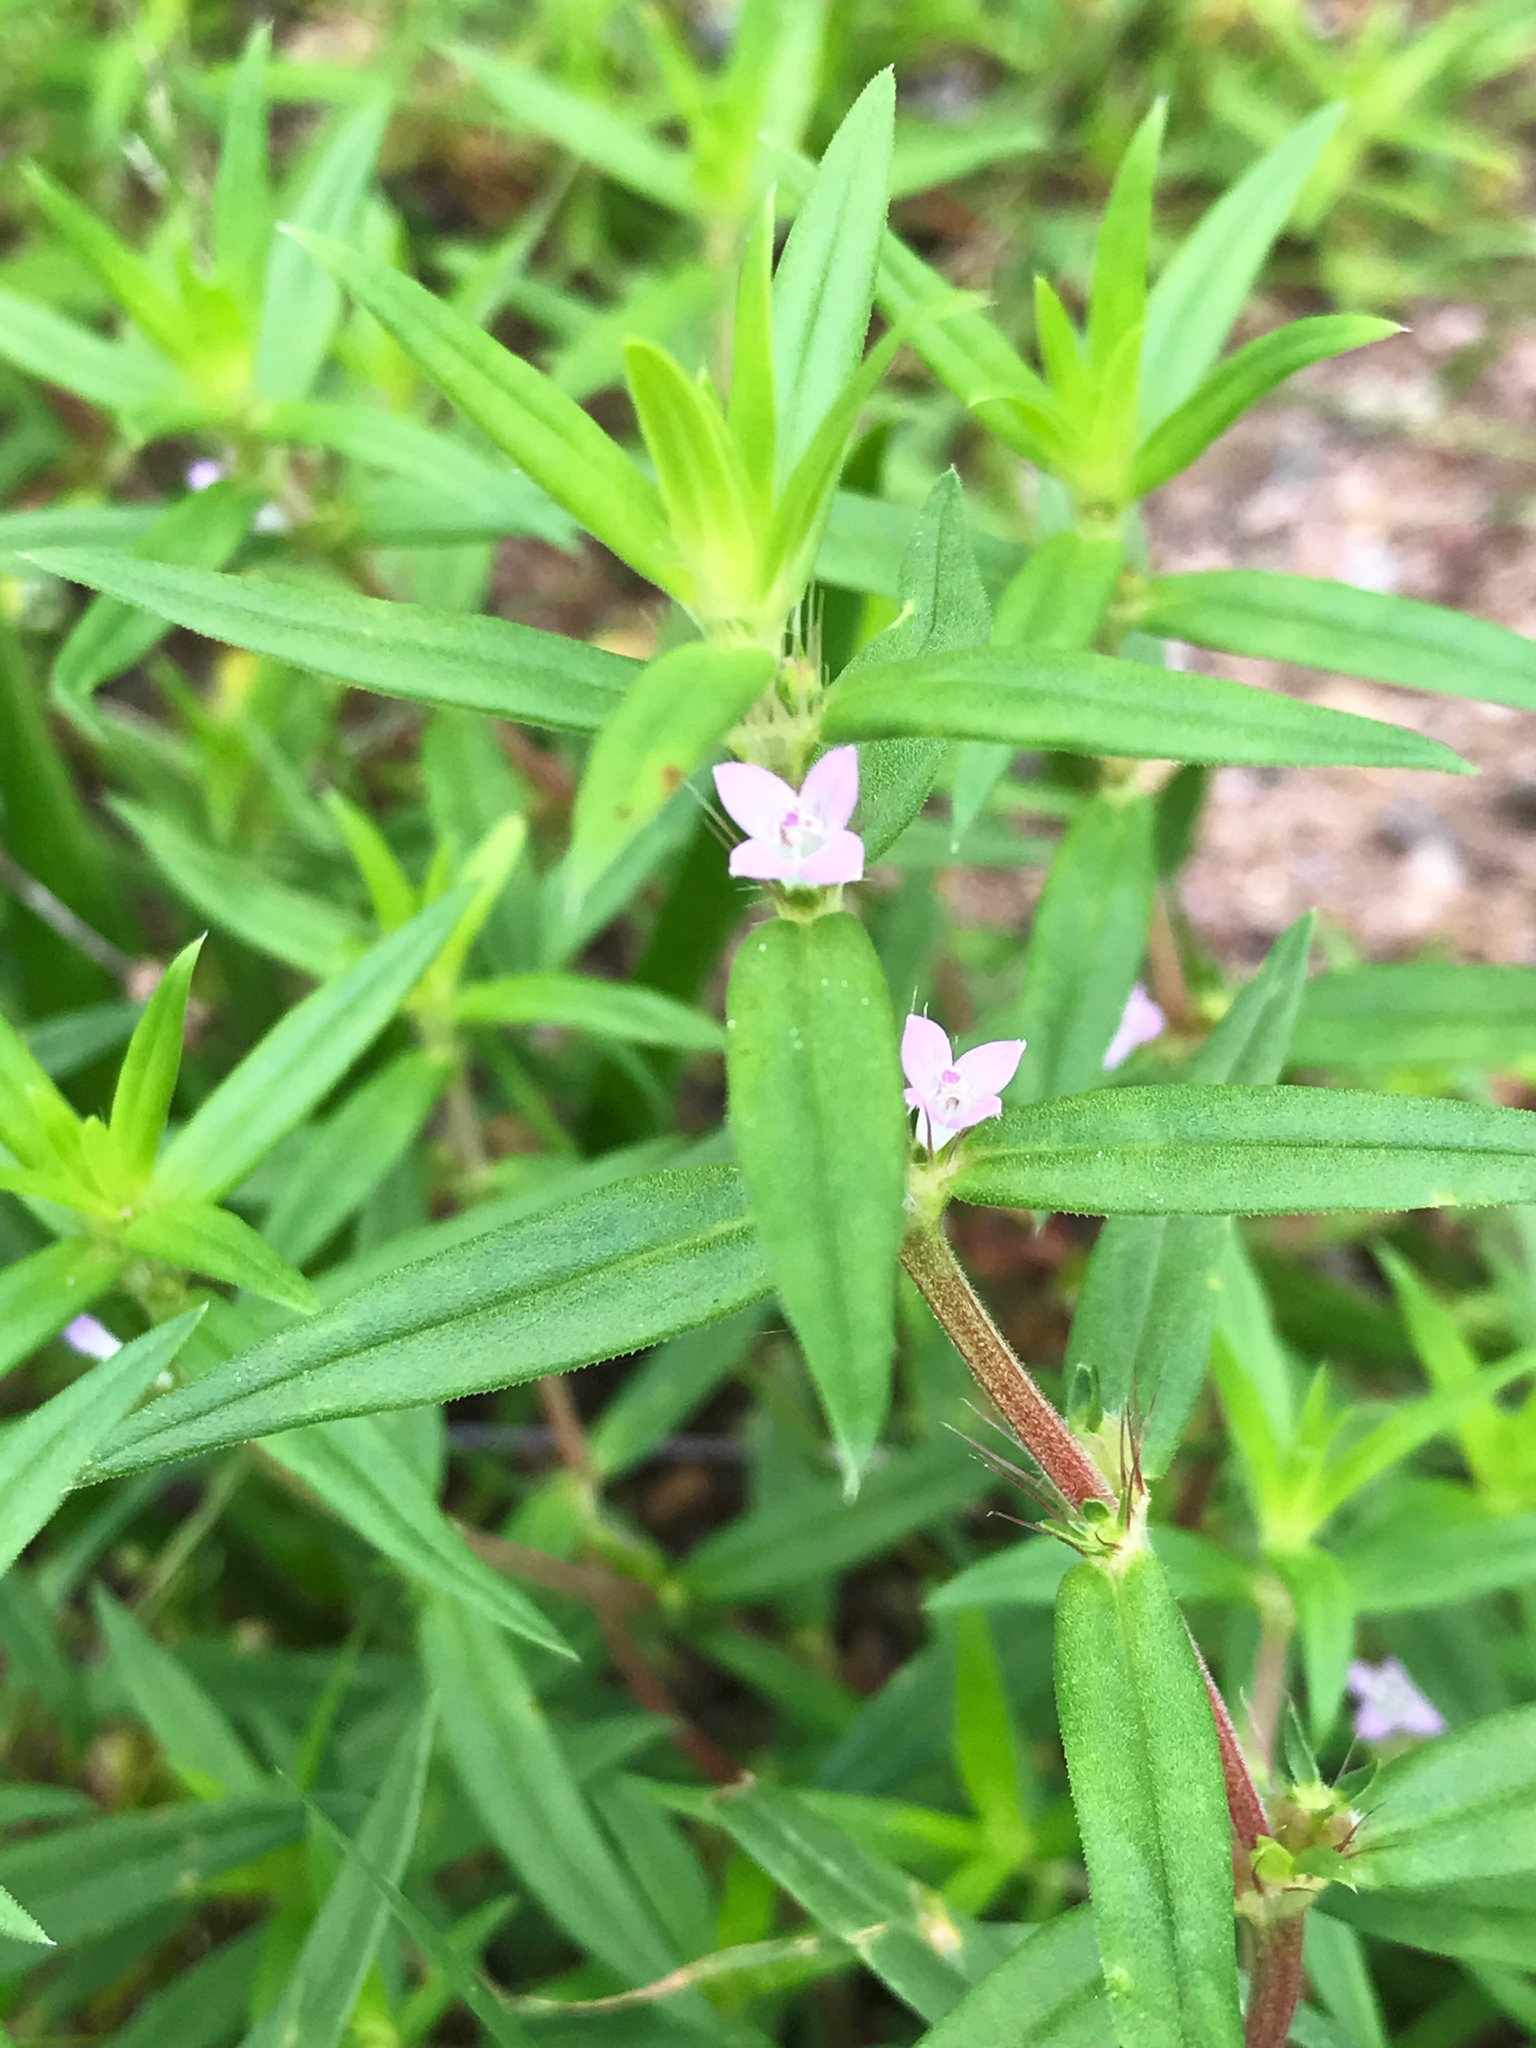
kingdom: Plantae
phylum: Tracheophyta
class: Magnoliopsida
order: Gentianales
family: Rubiaceae
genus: Hexasepalum
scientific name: Hexasepalum teres
